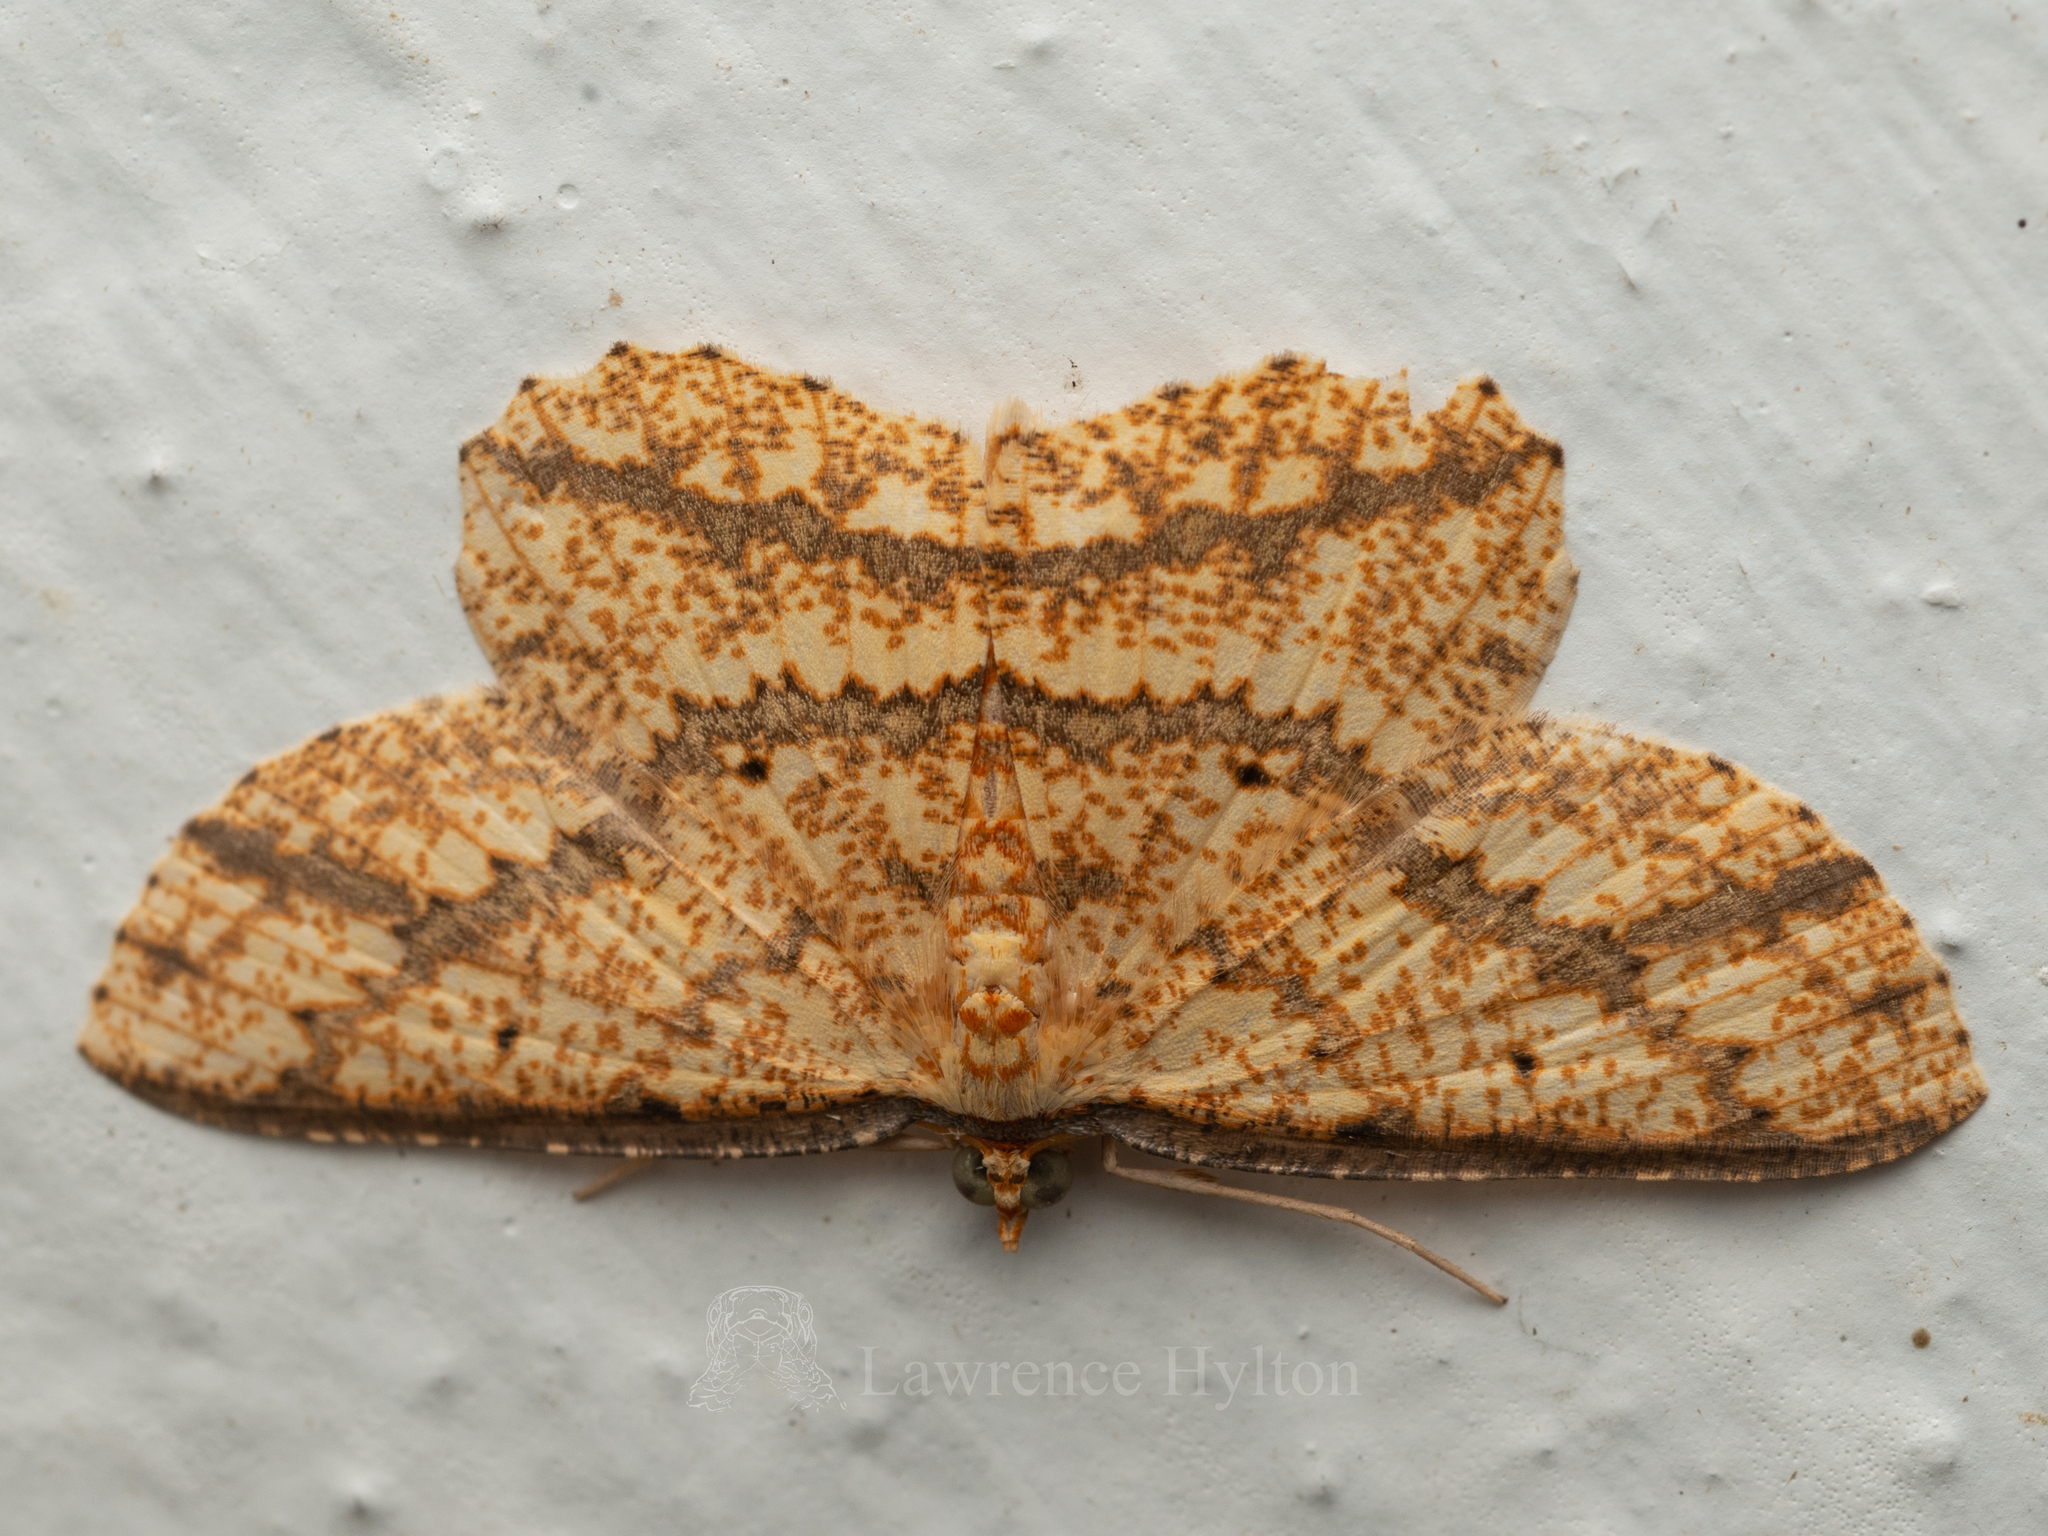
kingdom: Animalia
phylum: Arthropoda
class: Insecta
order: Lepidoptera
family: Geometridae
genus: Synegia
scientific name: Synegia eumeleata
